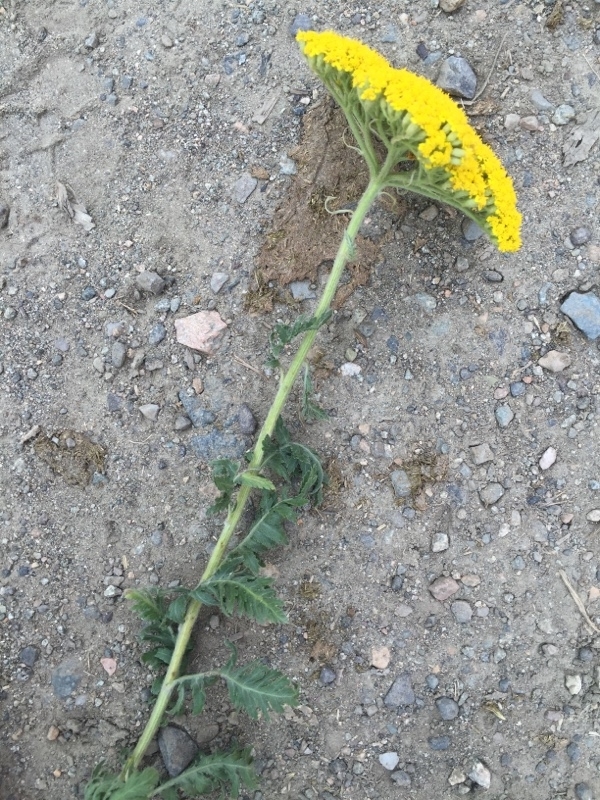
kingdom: Plantae
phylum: Tracheophyta
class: Magnoliopsida
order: Asterales
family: Asteraceae
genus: Achillea
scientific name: Achillea filipendulina
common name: Fernleaf yarrow
